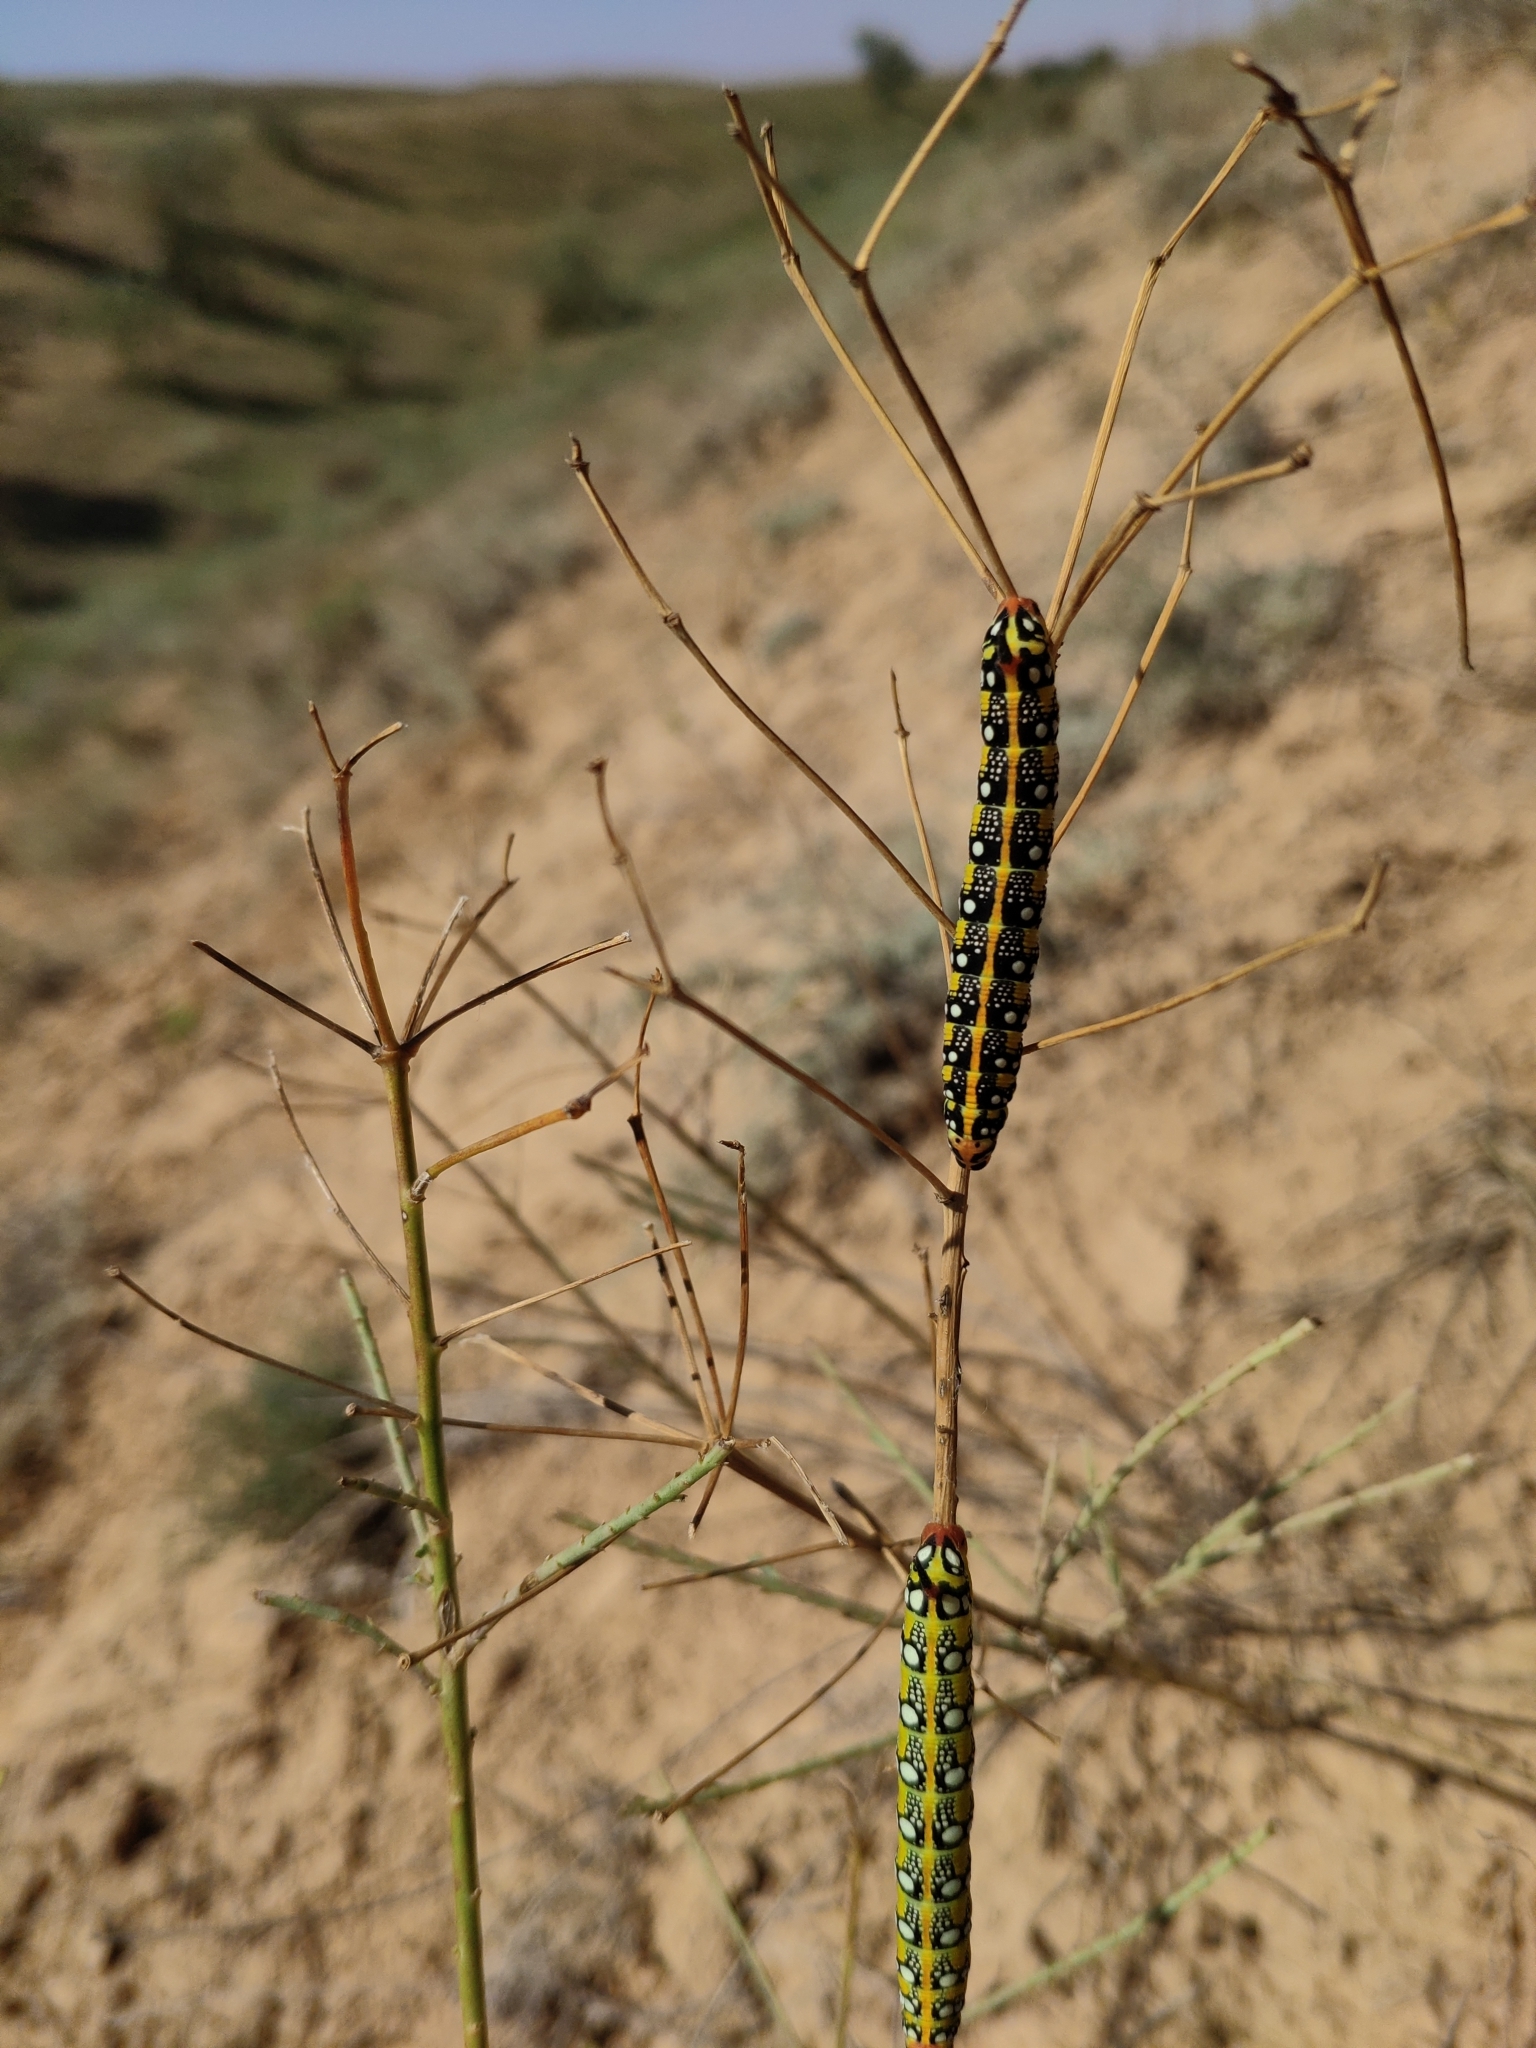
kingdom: Animalia
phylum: Arthropoda
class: Insecta
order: Lepidoptera
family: Sphingidae
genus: Hyles
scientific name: Hyles euphorbiae
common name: Spurge hawk-moth
